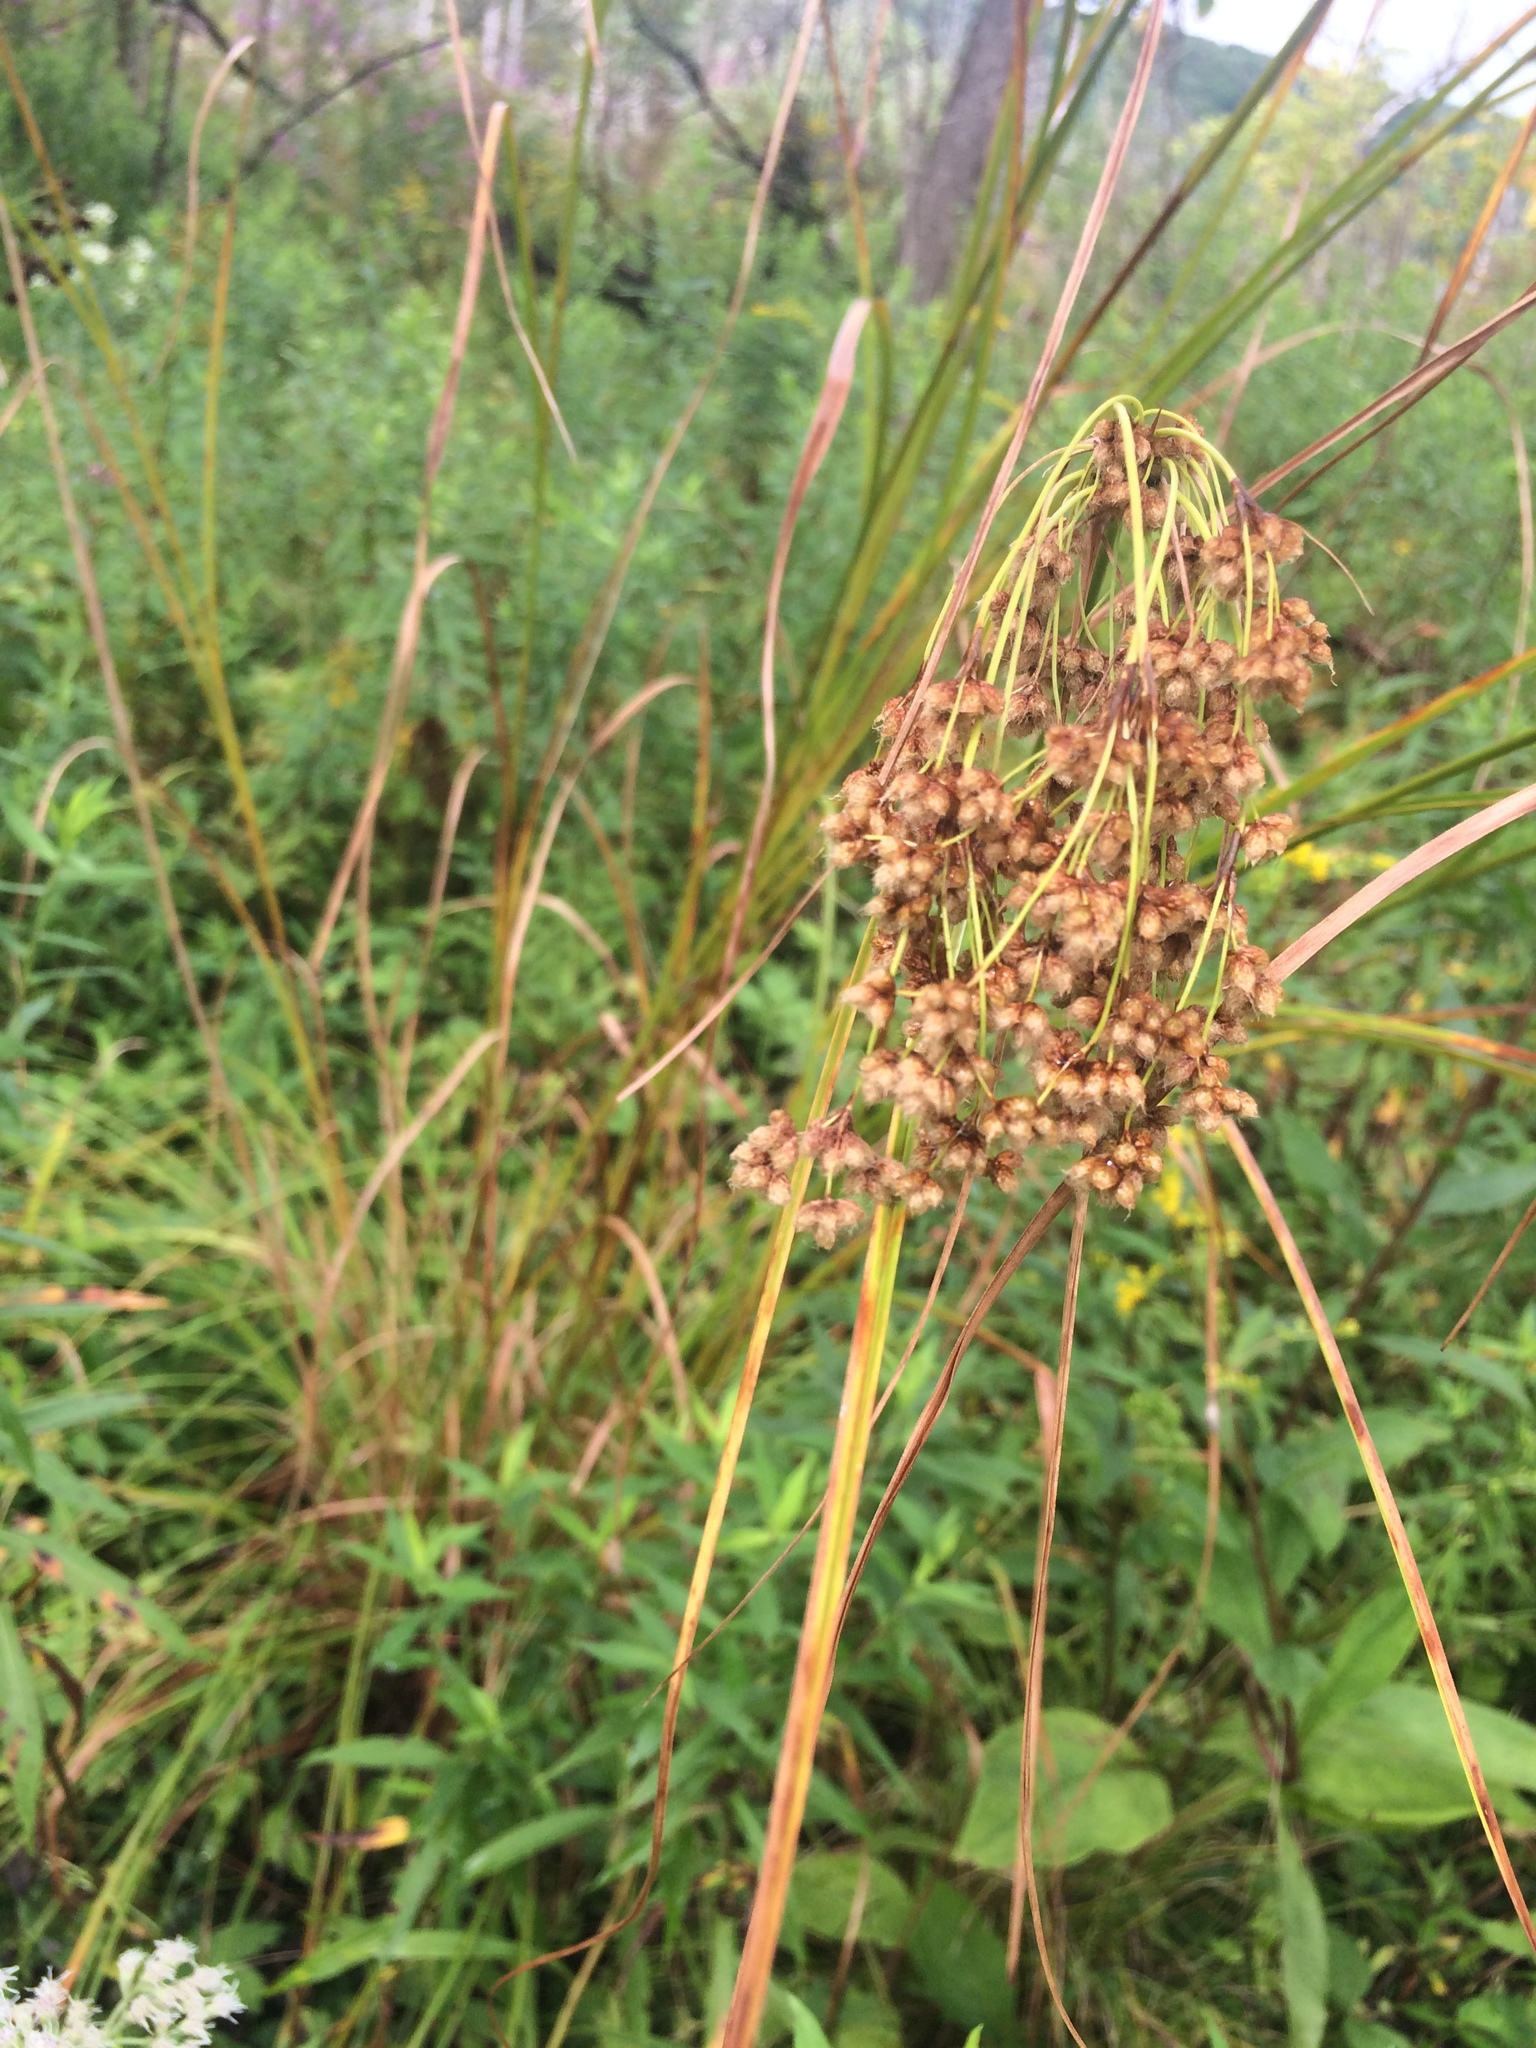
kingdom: Plantae
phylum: Tracheophyta
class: Liliopsida
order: Poales
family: Cyperaceae
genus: Scirpus
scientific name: Scirpus cyperinus
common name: Black-sheathed bulrush
